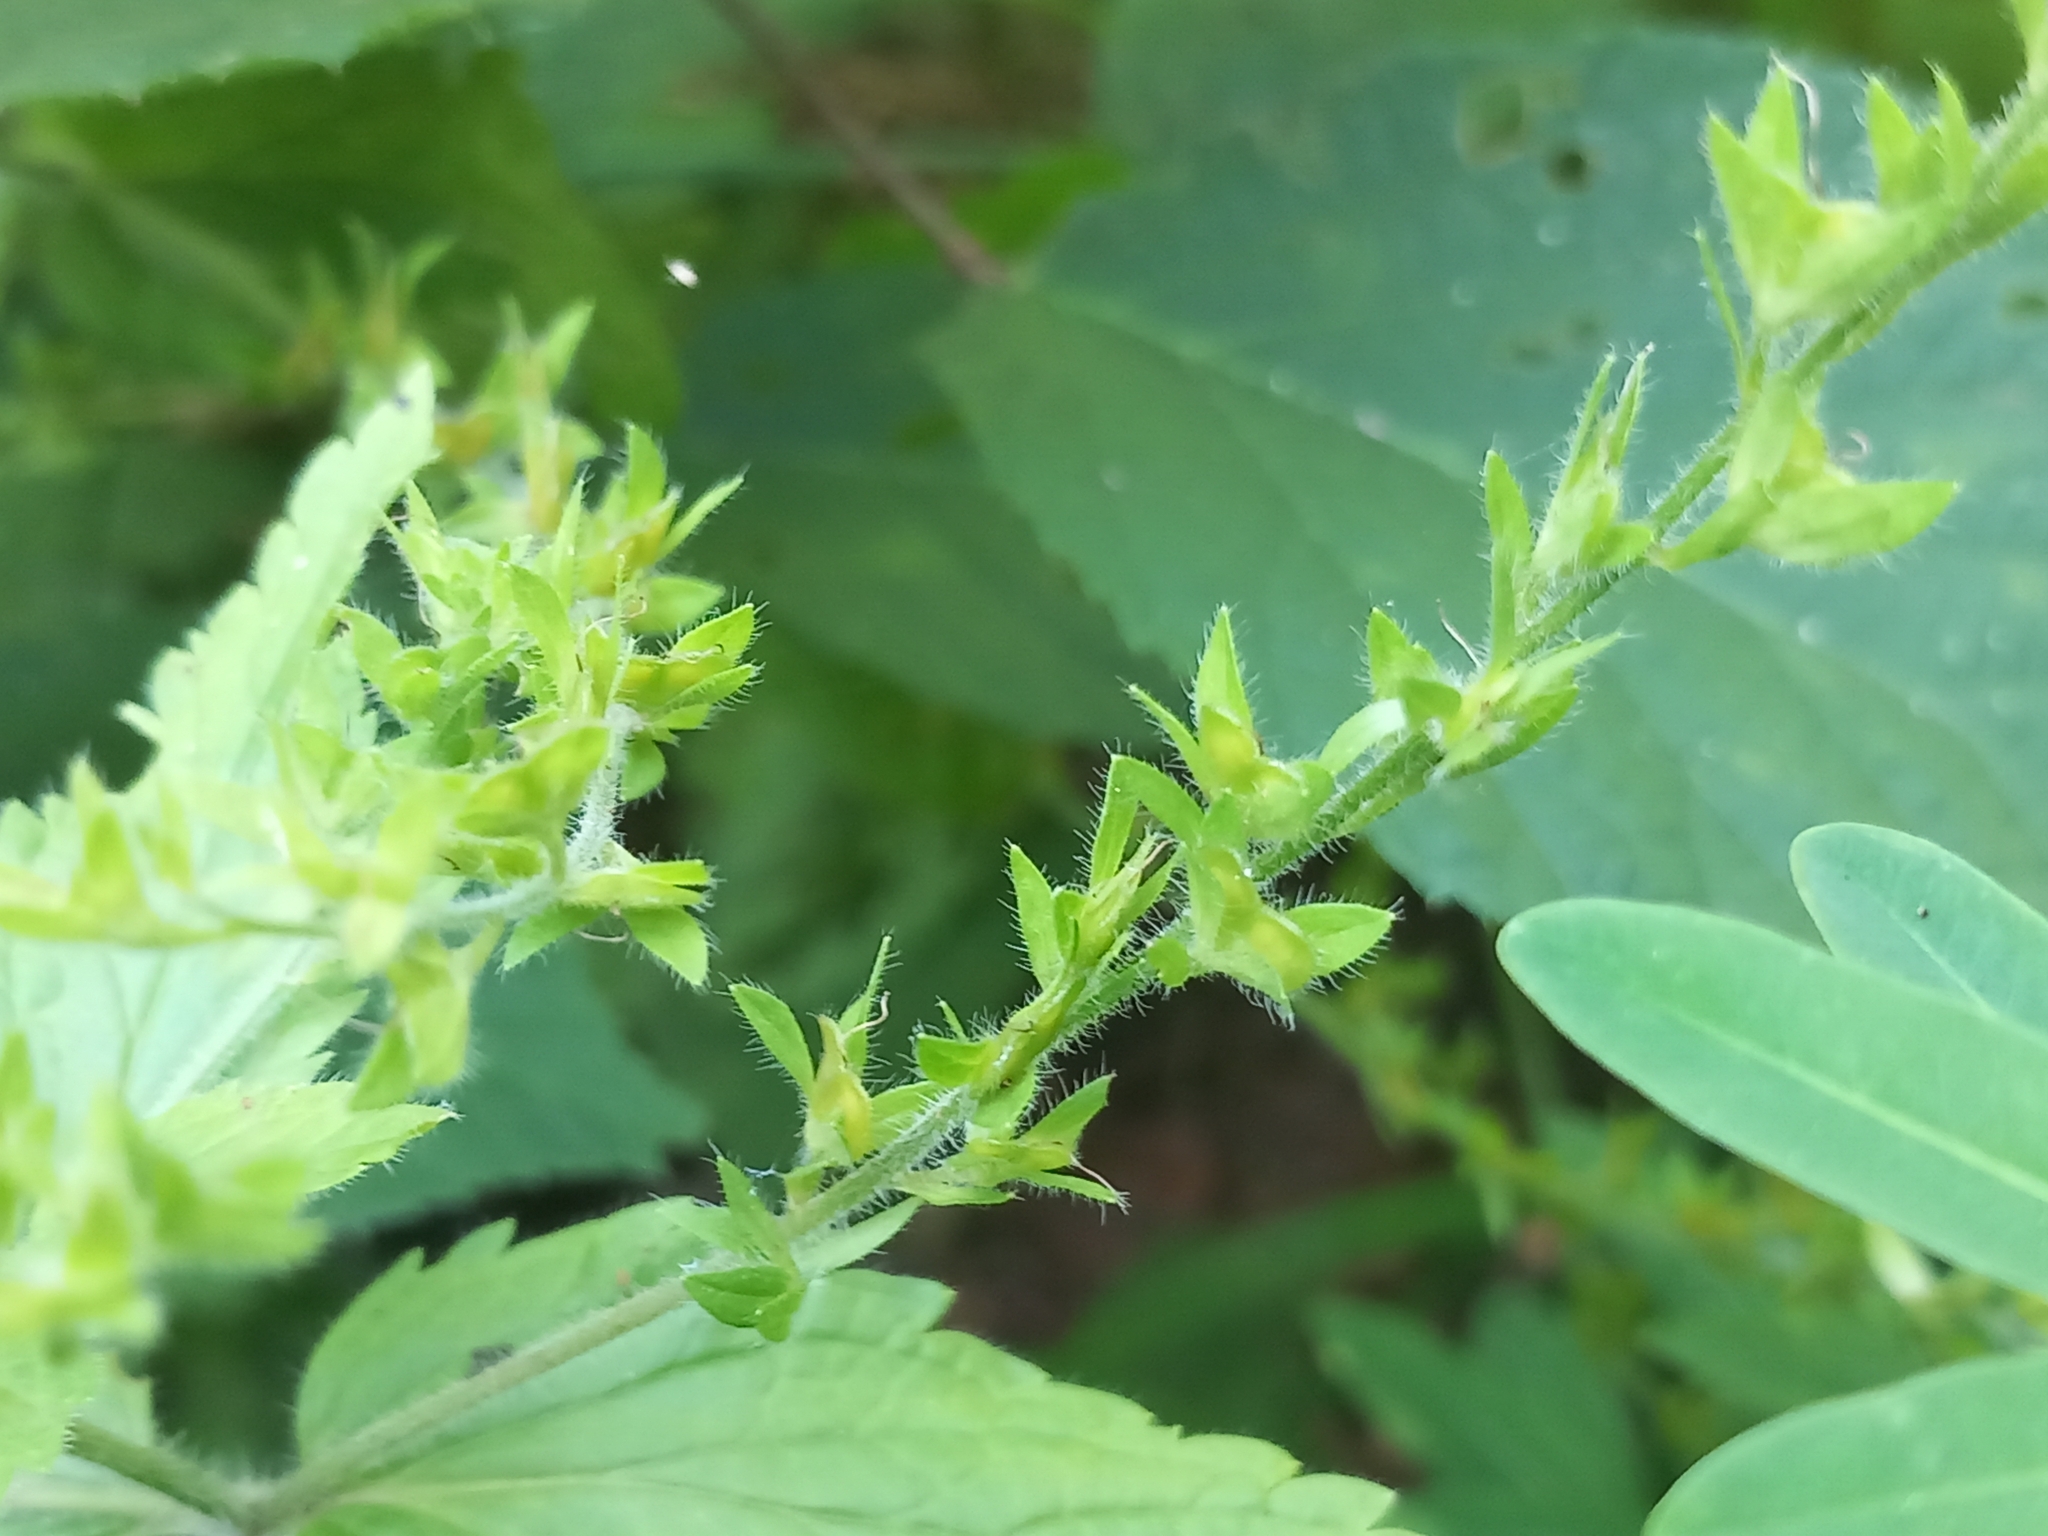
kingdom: Plantae
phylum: Tracheophyta
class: Magnoliopsida
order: Lamiales
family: Plantaginaceae
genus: Veronica
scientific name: Veronica magna
